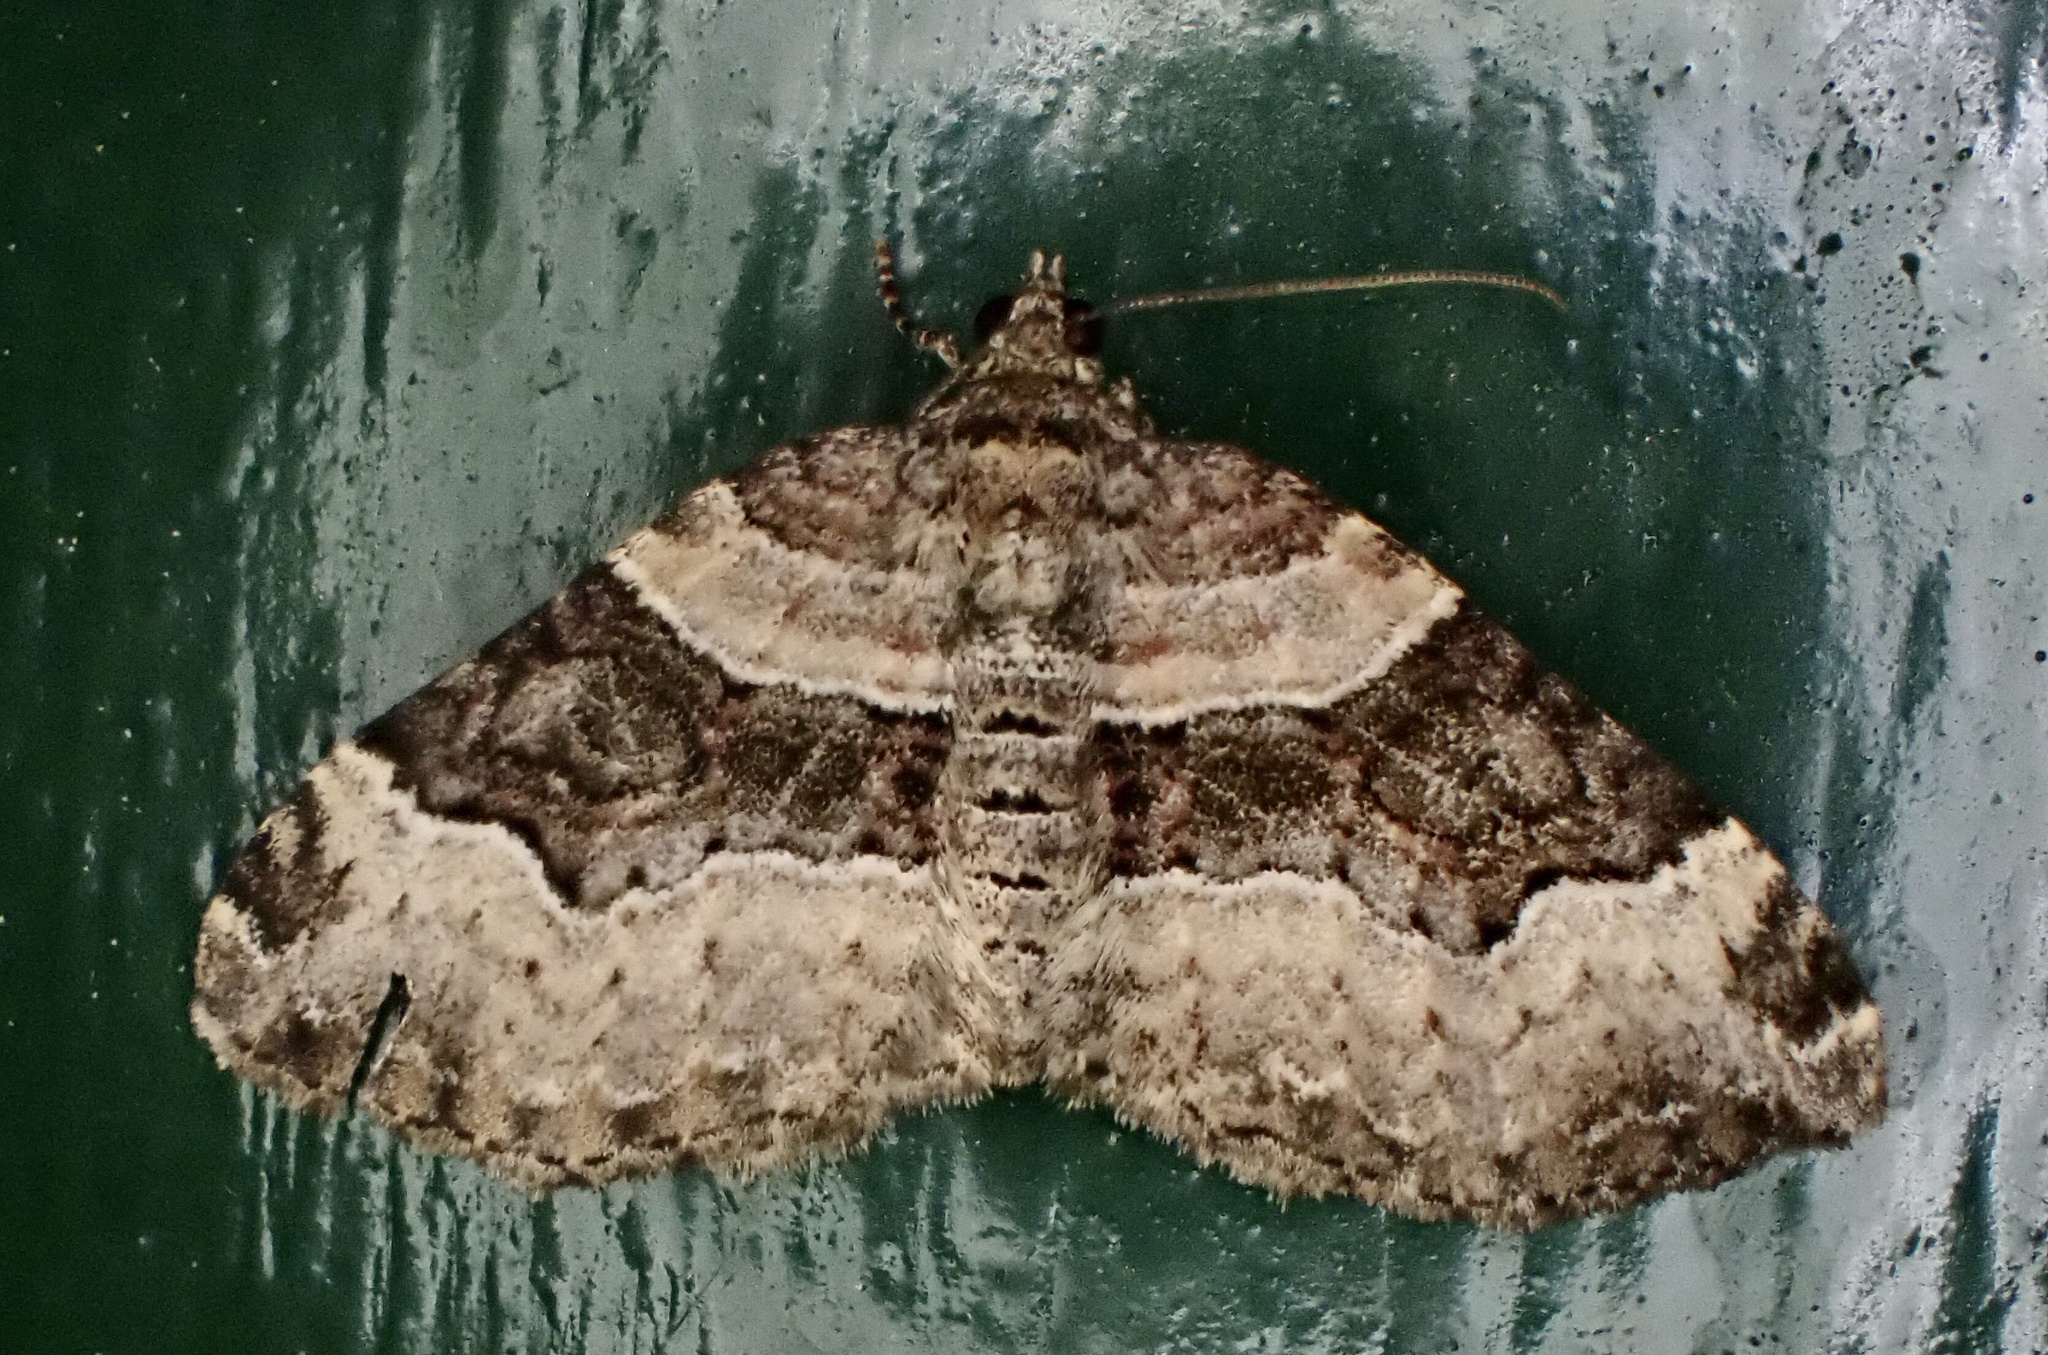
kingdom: Animalia
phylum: Arthropoda
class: Insecta
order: Lepidoptera
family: Geometridae
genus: Xanthorhoe
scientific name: Xanthorhoe lacustrata
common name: Toothed brown carpet
